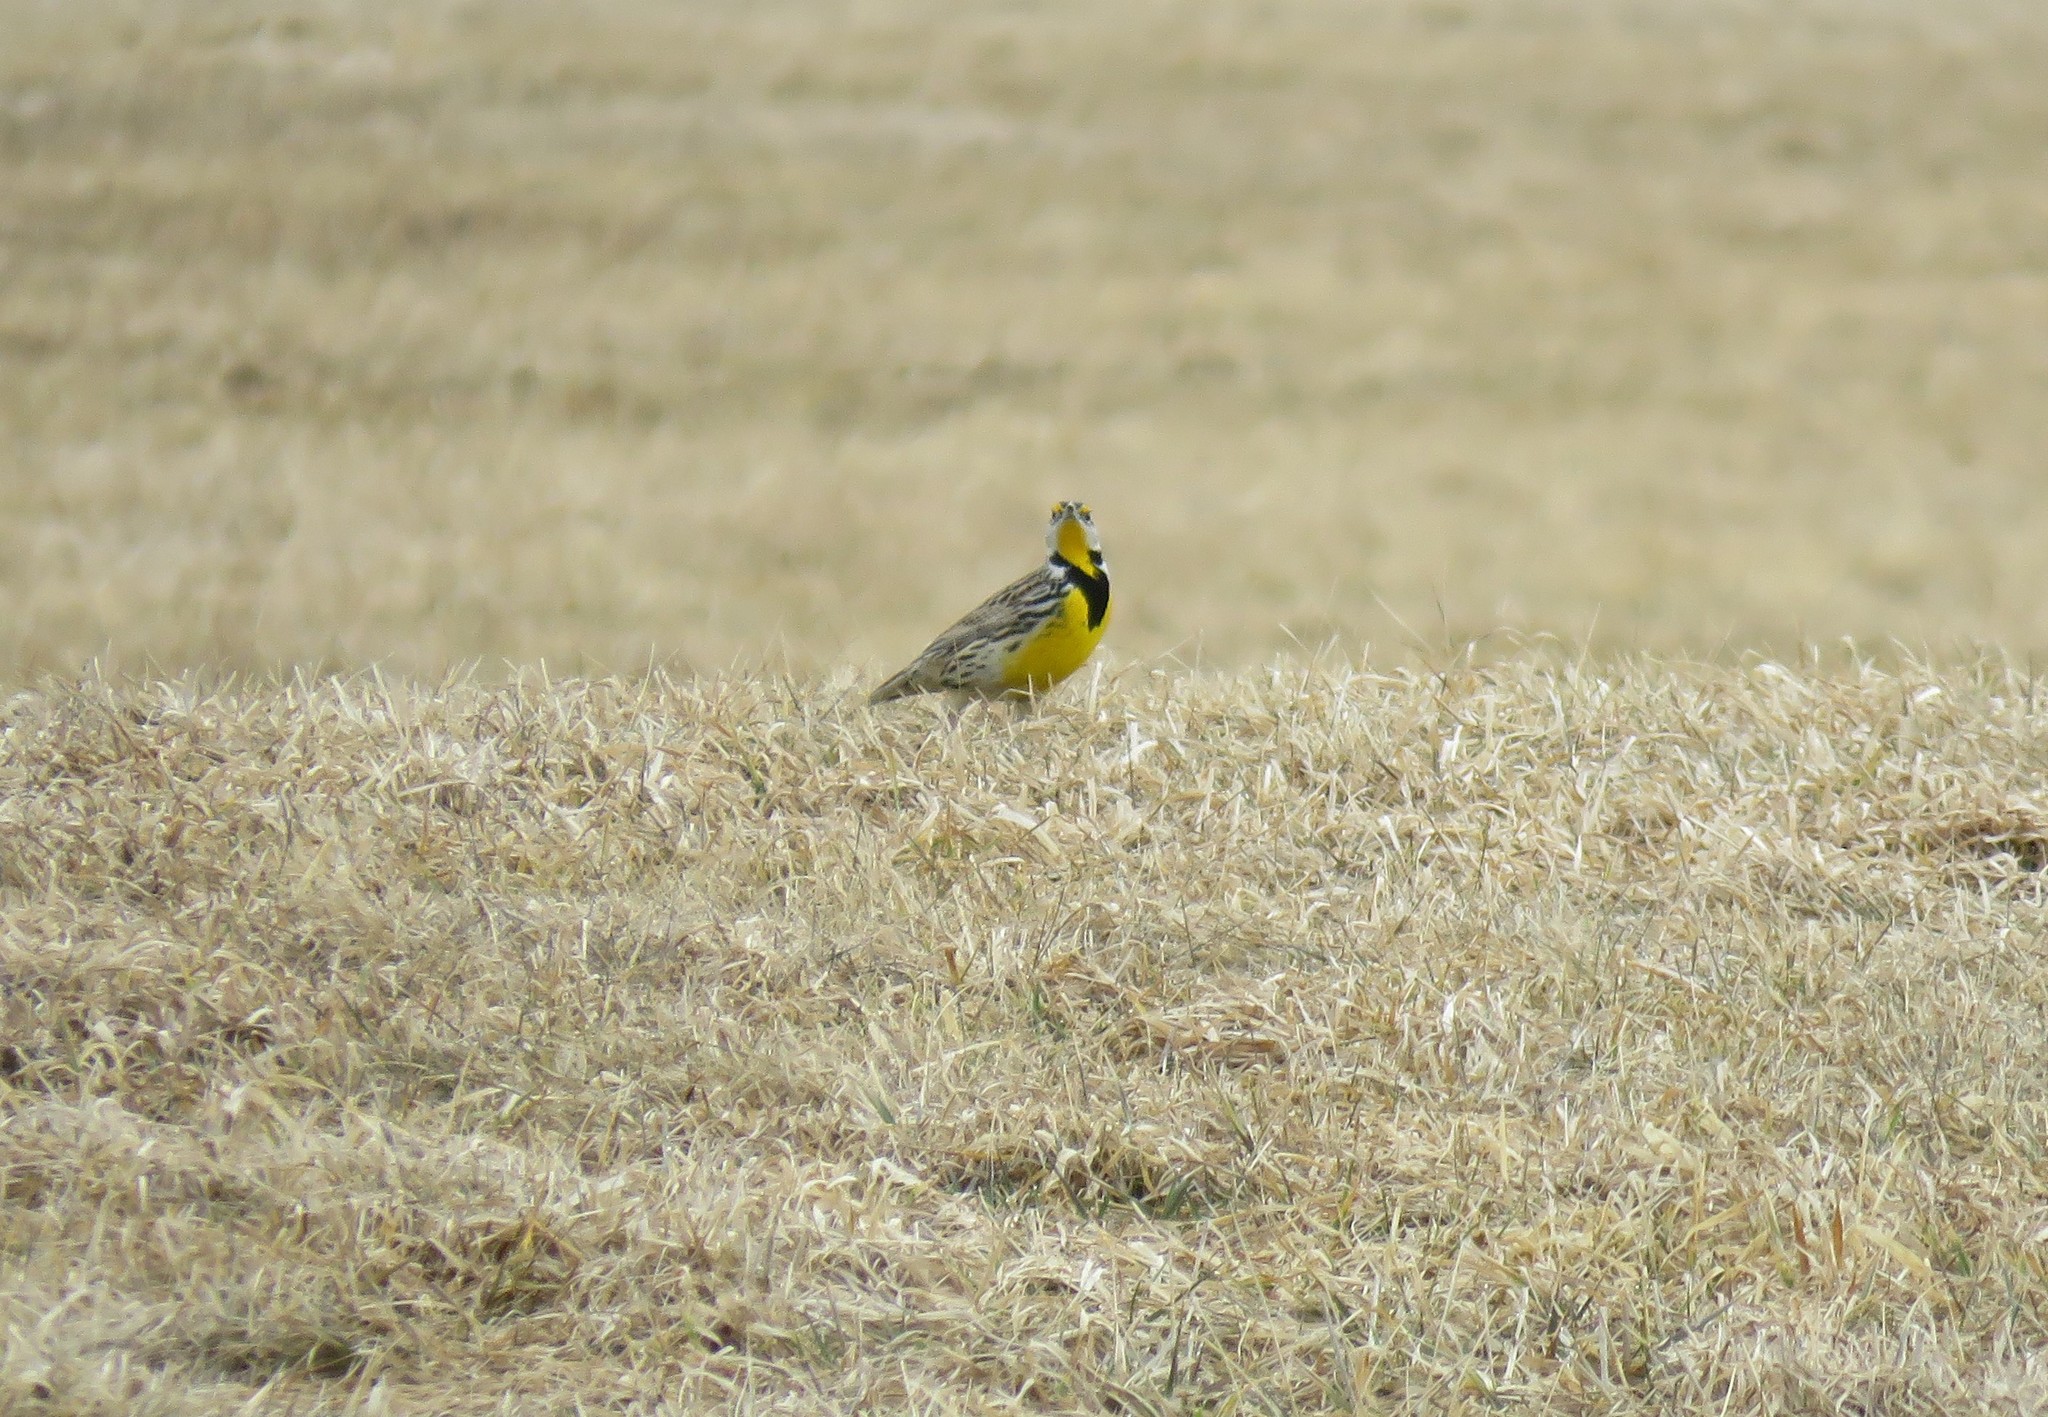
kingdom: Animalia
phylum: Chordata
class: Aves
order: Passeriformes
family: Icteridae
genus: Sturnella
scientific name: Sturnella magna
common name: Eastern meadowlark
